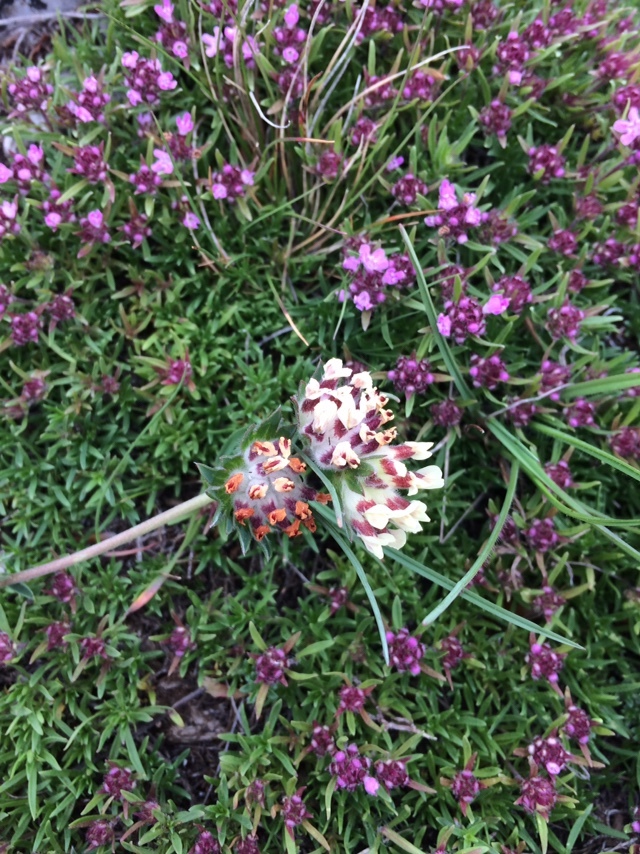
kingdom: Plantae
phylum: Tracheophyta
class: Magnoliopsida
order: Fabales
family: Fabaceae
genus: Anthyllis
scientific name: Anthyllis vulneraria
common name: Kidney vetch
